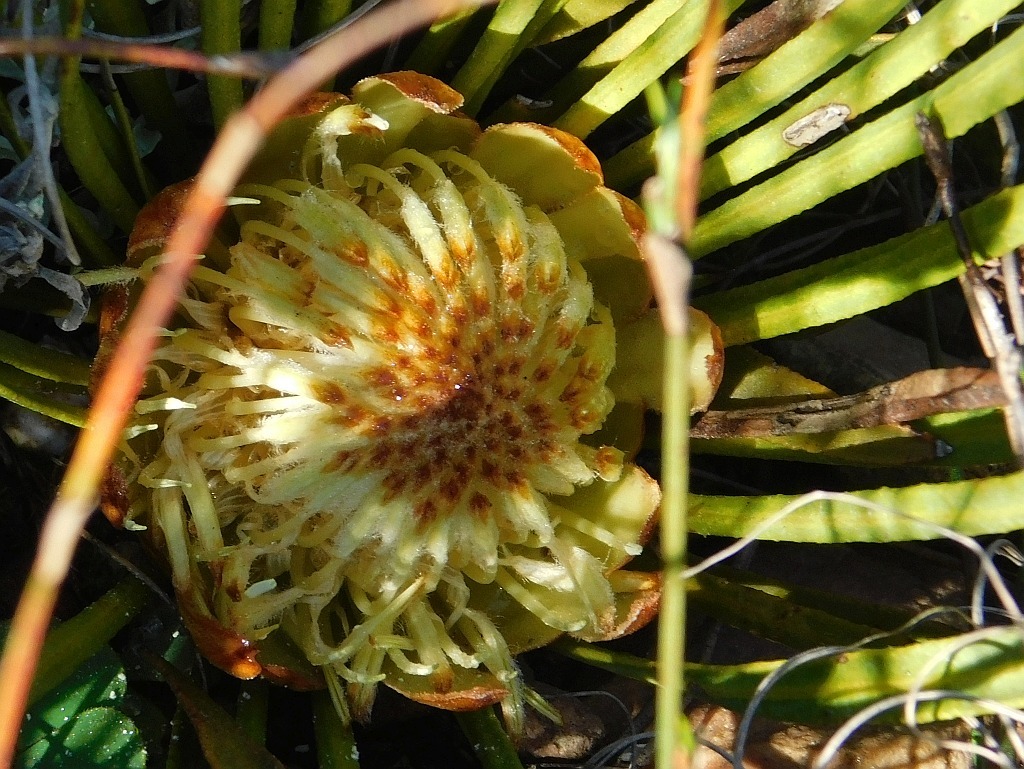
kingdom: Plantae
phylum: Tracheophyta
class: Magnoliopsida
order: Proteales
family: Proteaceae
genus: Protea
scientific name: Protea scabra
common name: Sandpaper-leaf sugarbush
